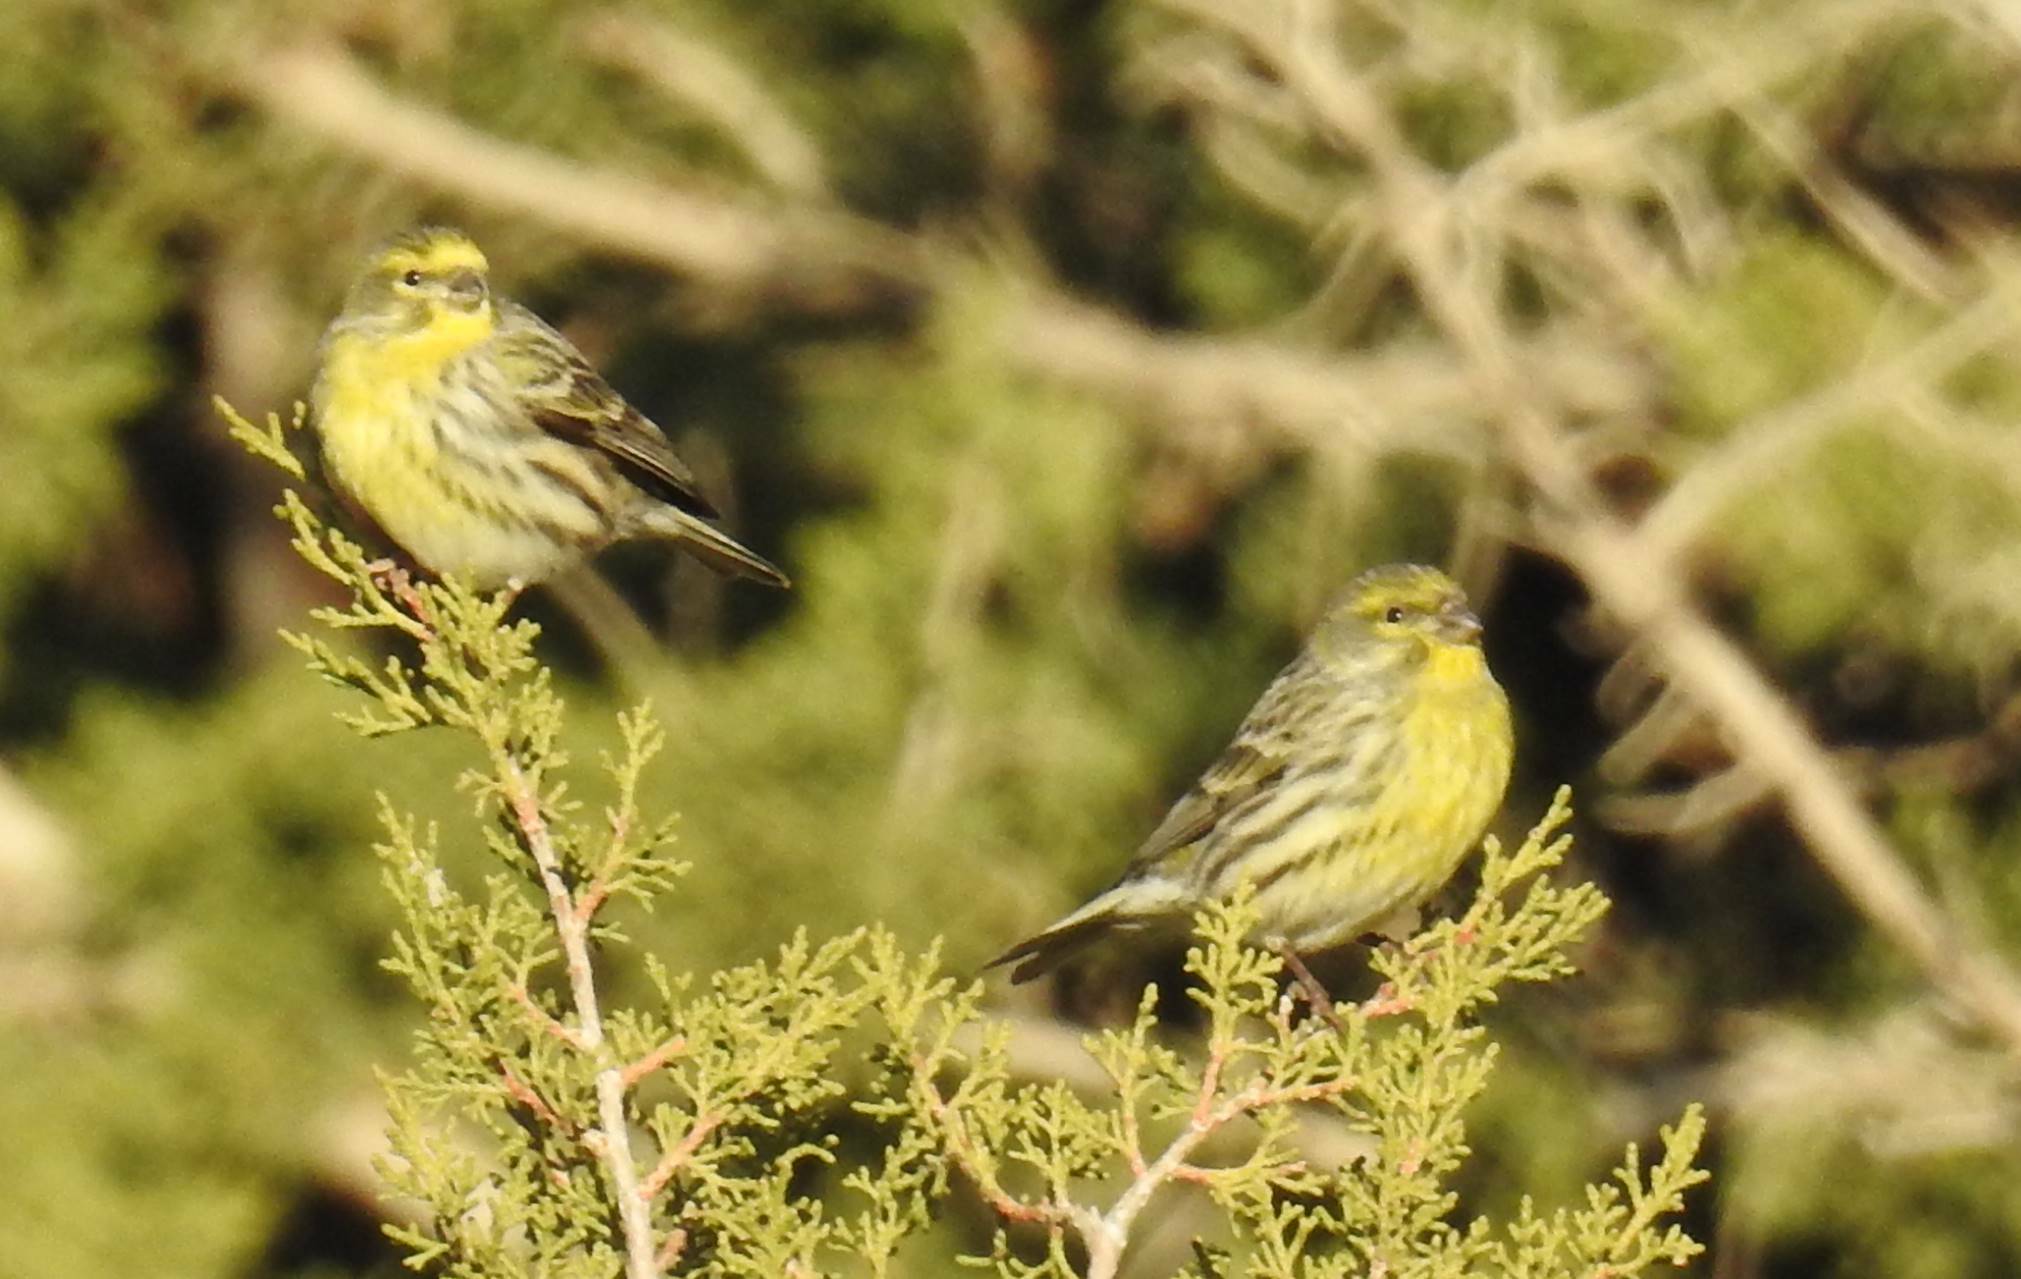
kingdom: Animalia
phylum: Chordata
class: Aves
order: Passeriformes
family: Fringillidae
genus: Serinus
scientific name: Serinus serinus
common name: European serin
